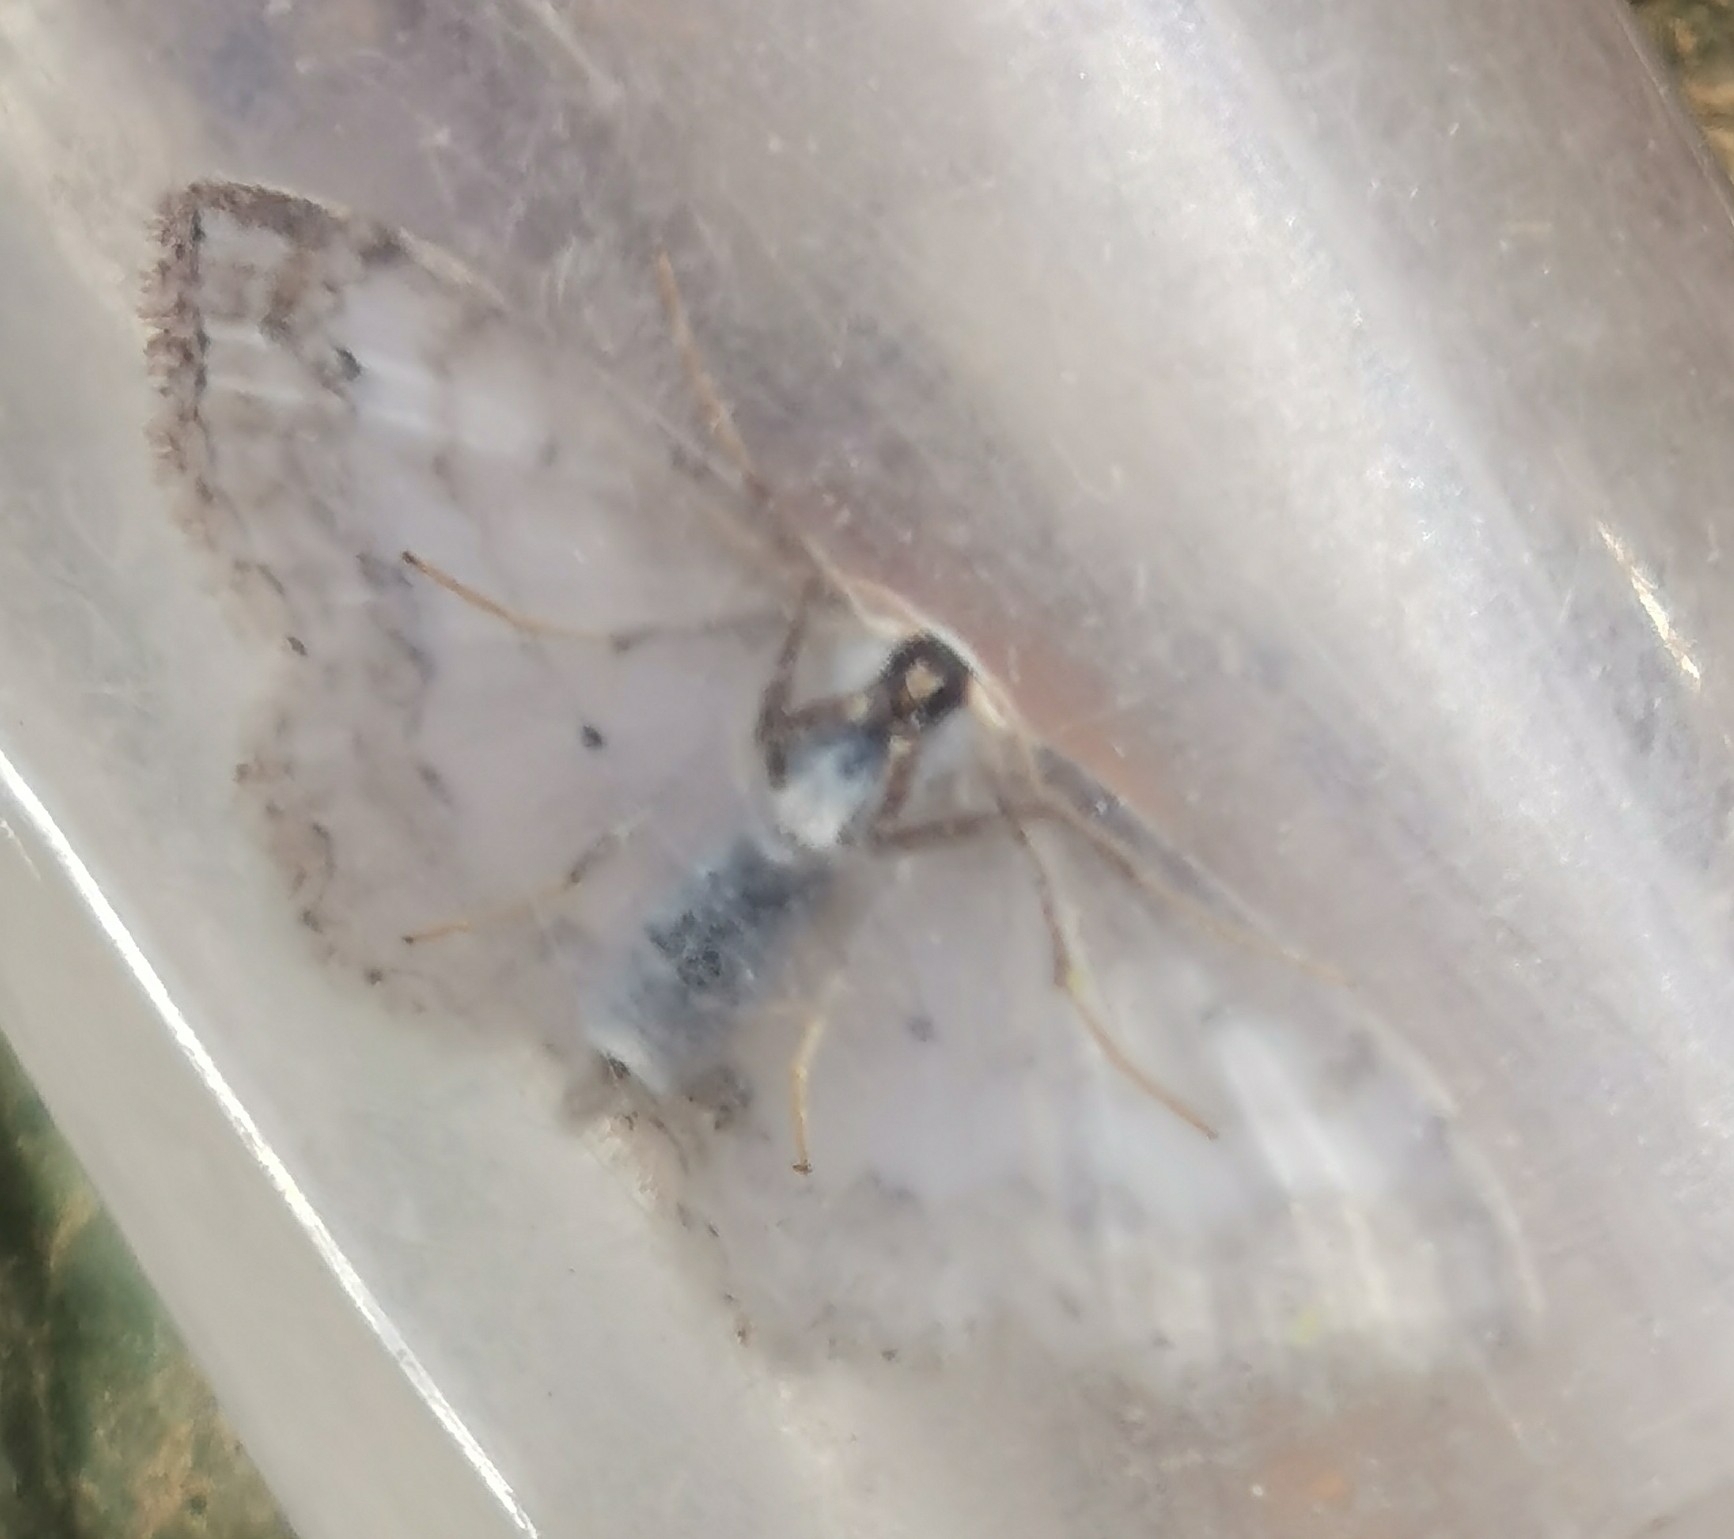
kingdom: Animalia
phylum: Arthropoda
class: Insecta
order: Lepidoptera
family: Geometridae
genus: Scopula
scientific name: Scopula ornata
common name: Lace border
